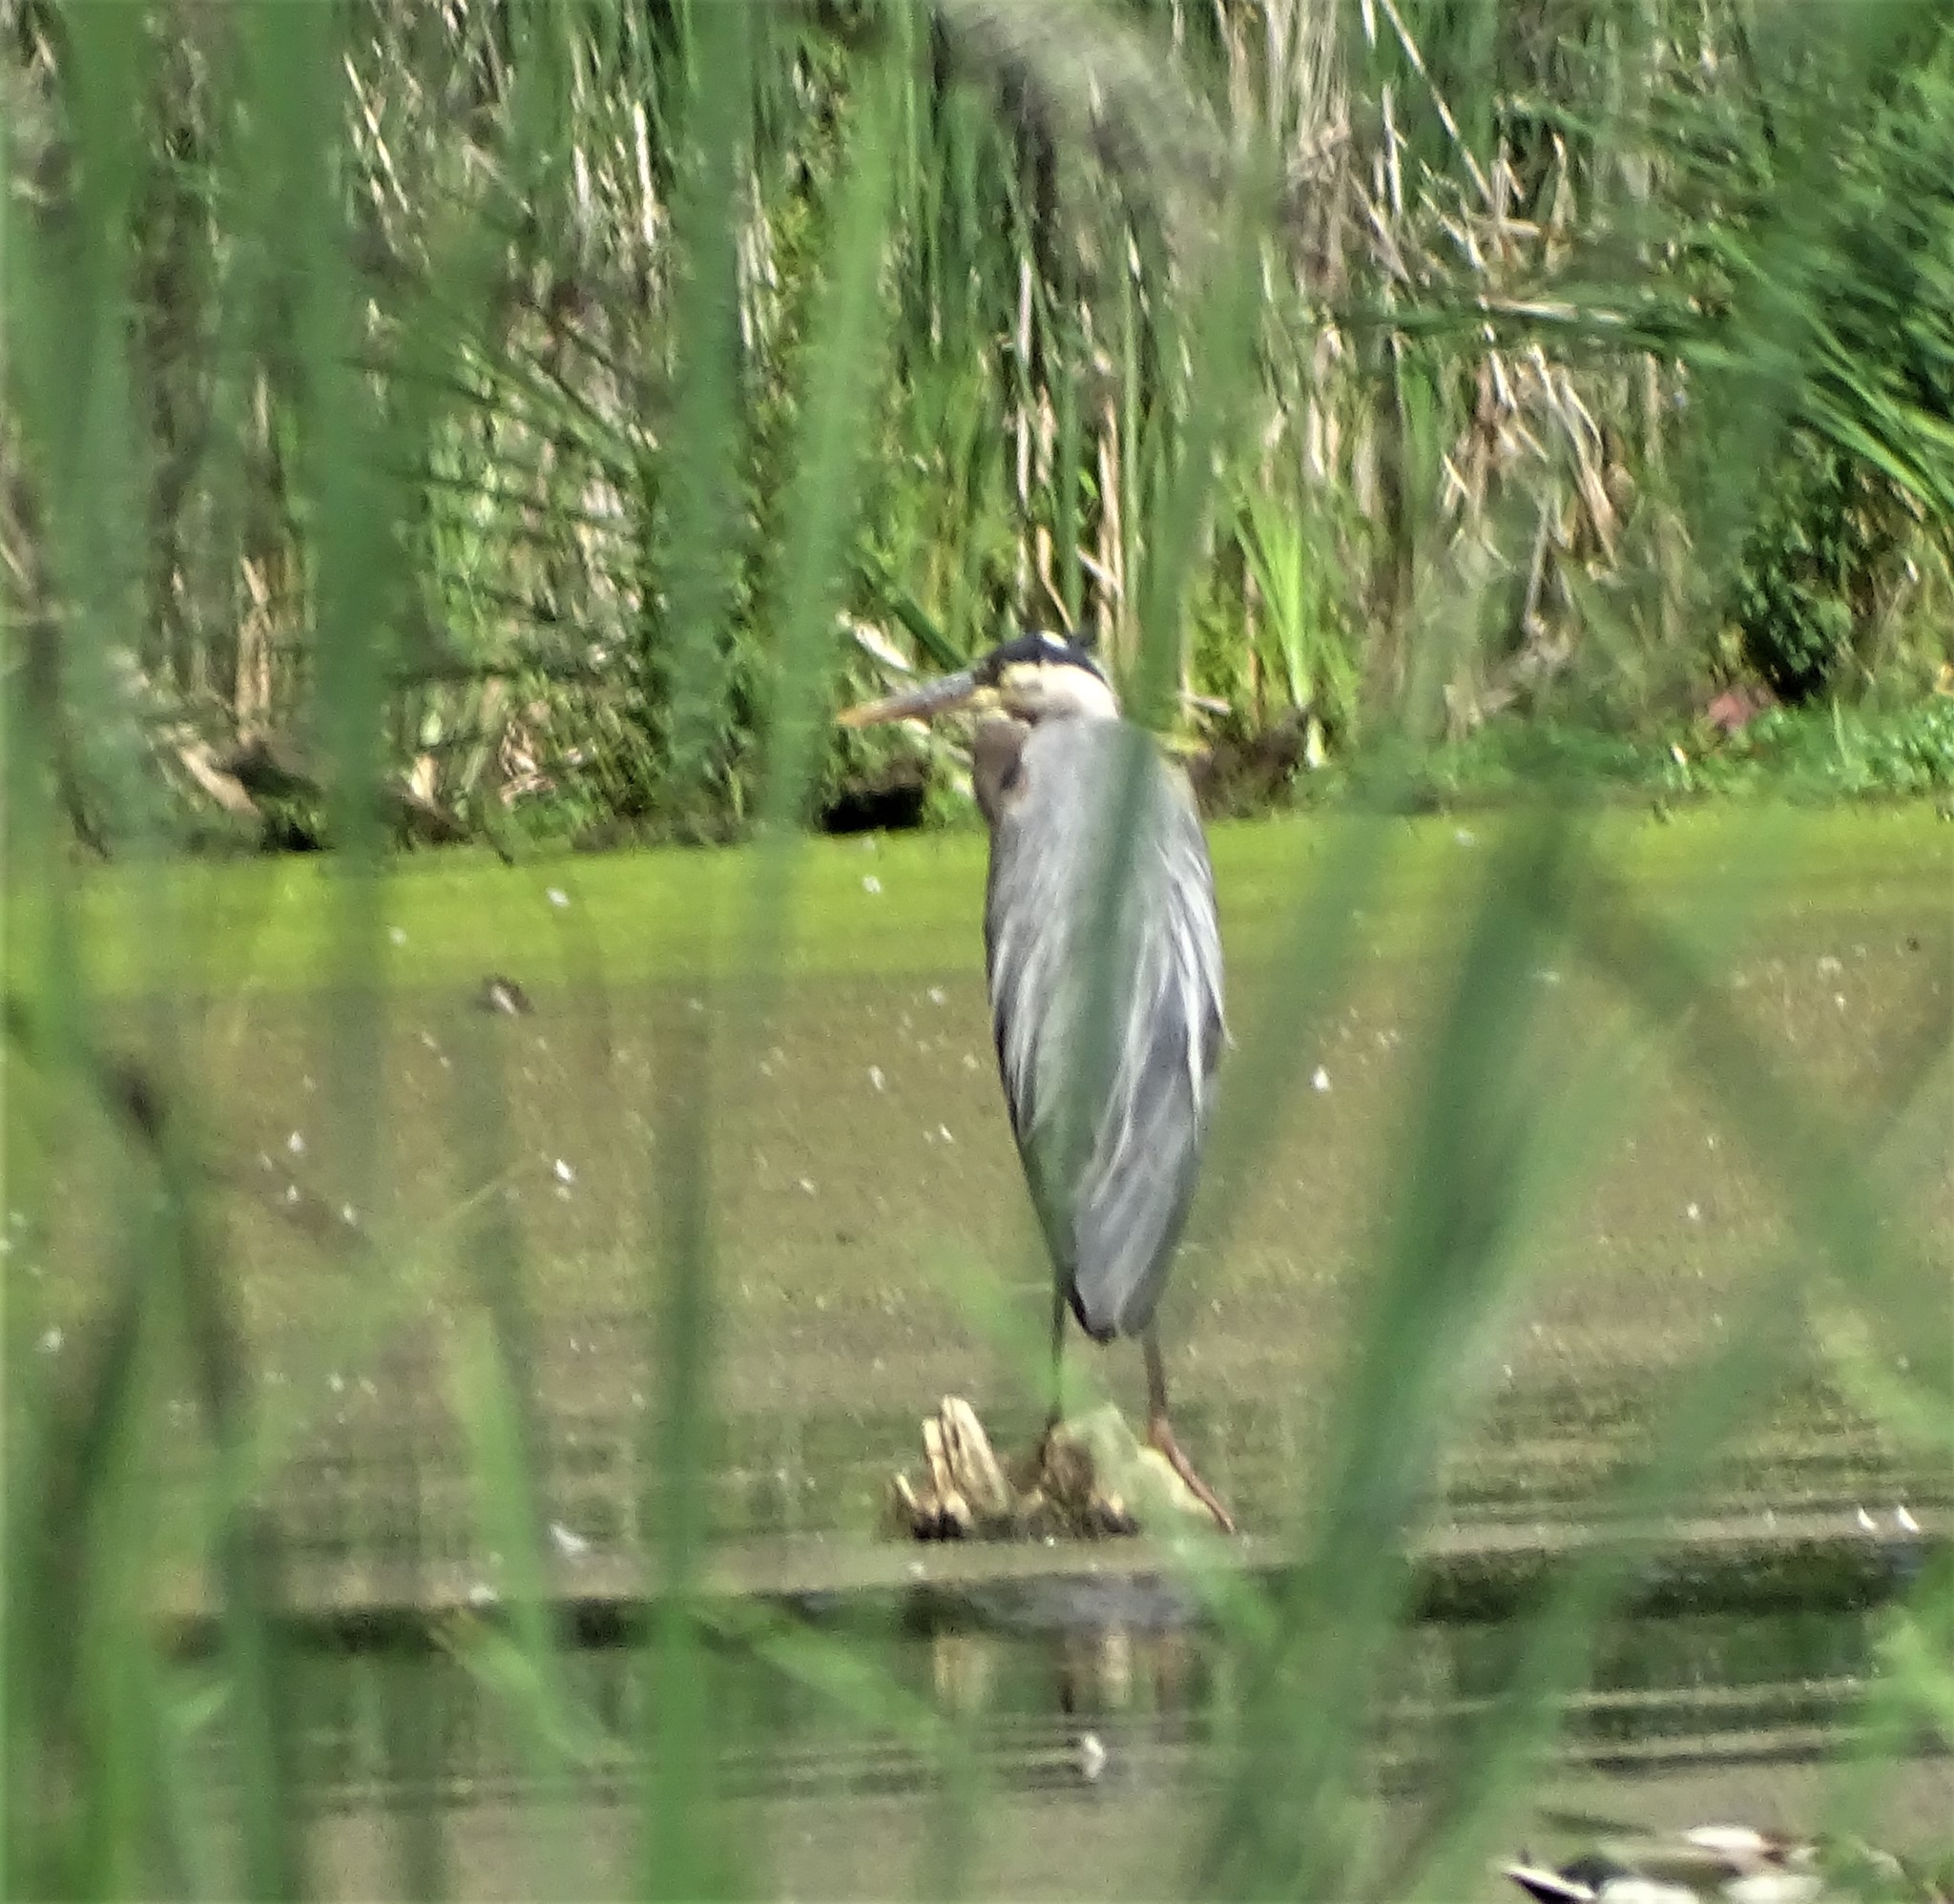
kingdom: Animalia
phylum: Chordata
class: Aves
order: Pelecaniformes
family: Ardeidae
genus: Ardea
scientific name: Ardea herodias
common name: Great blue heron
